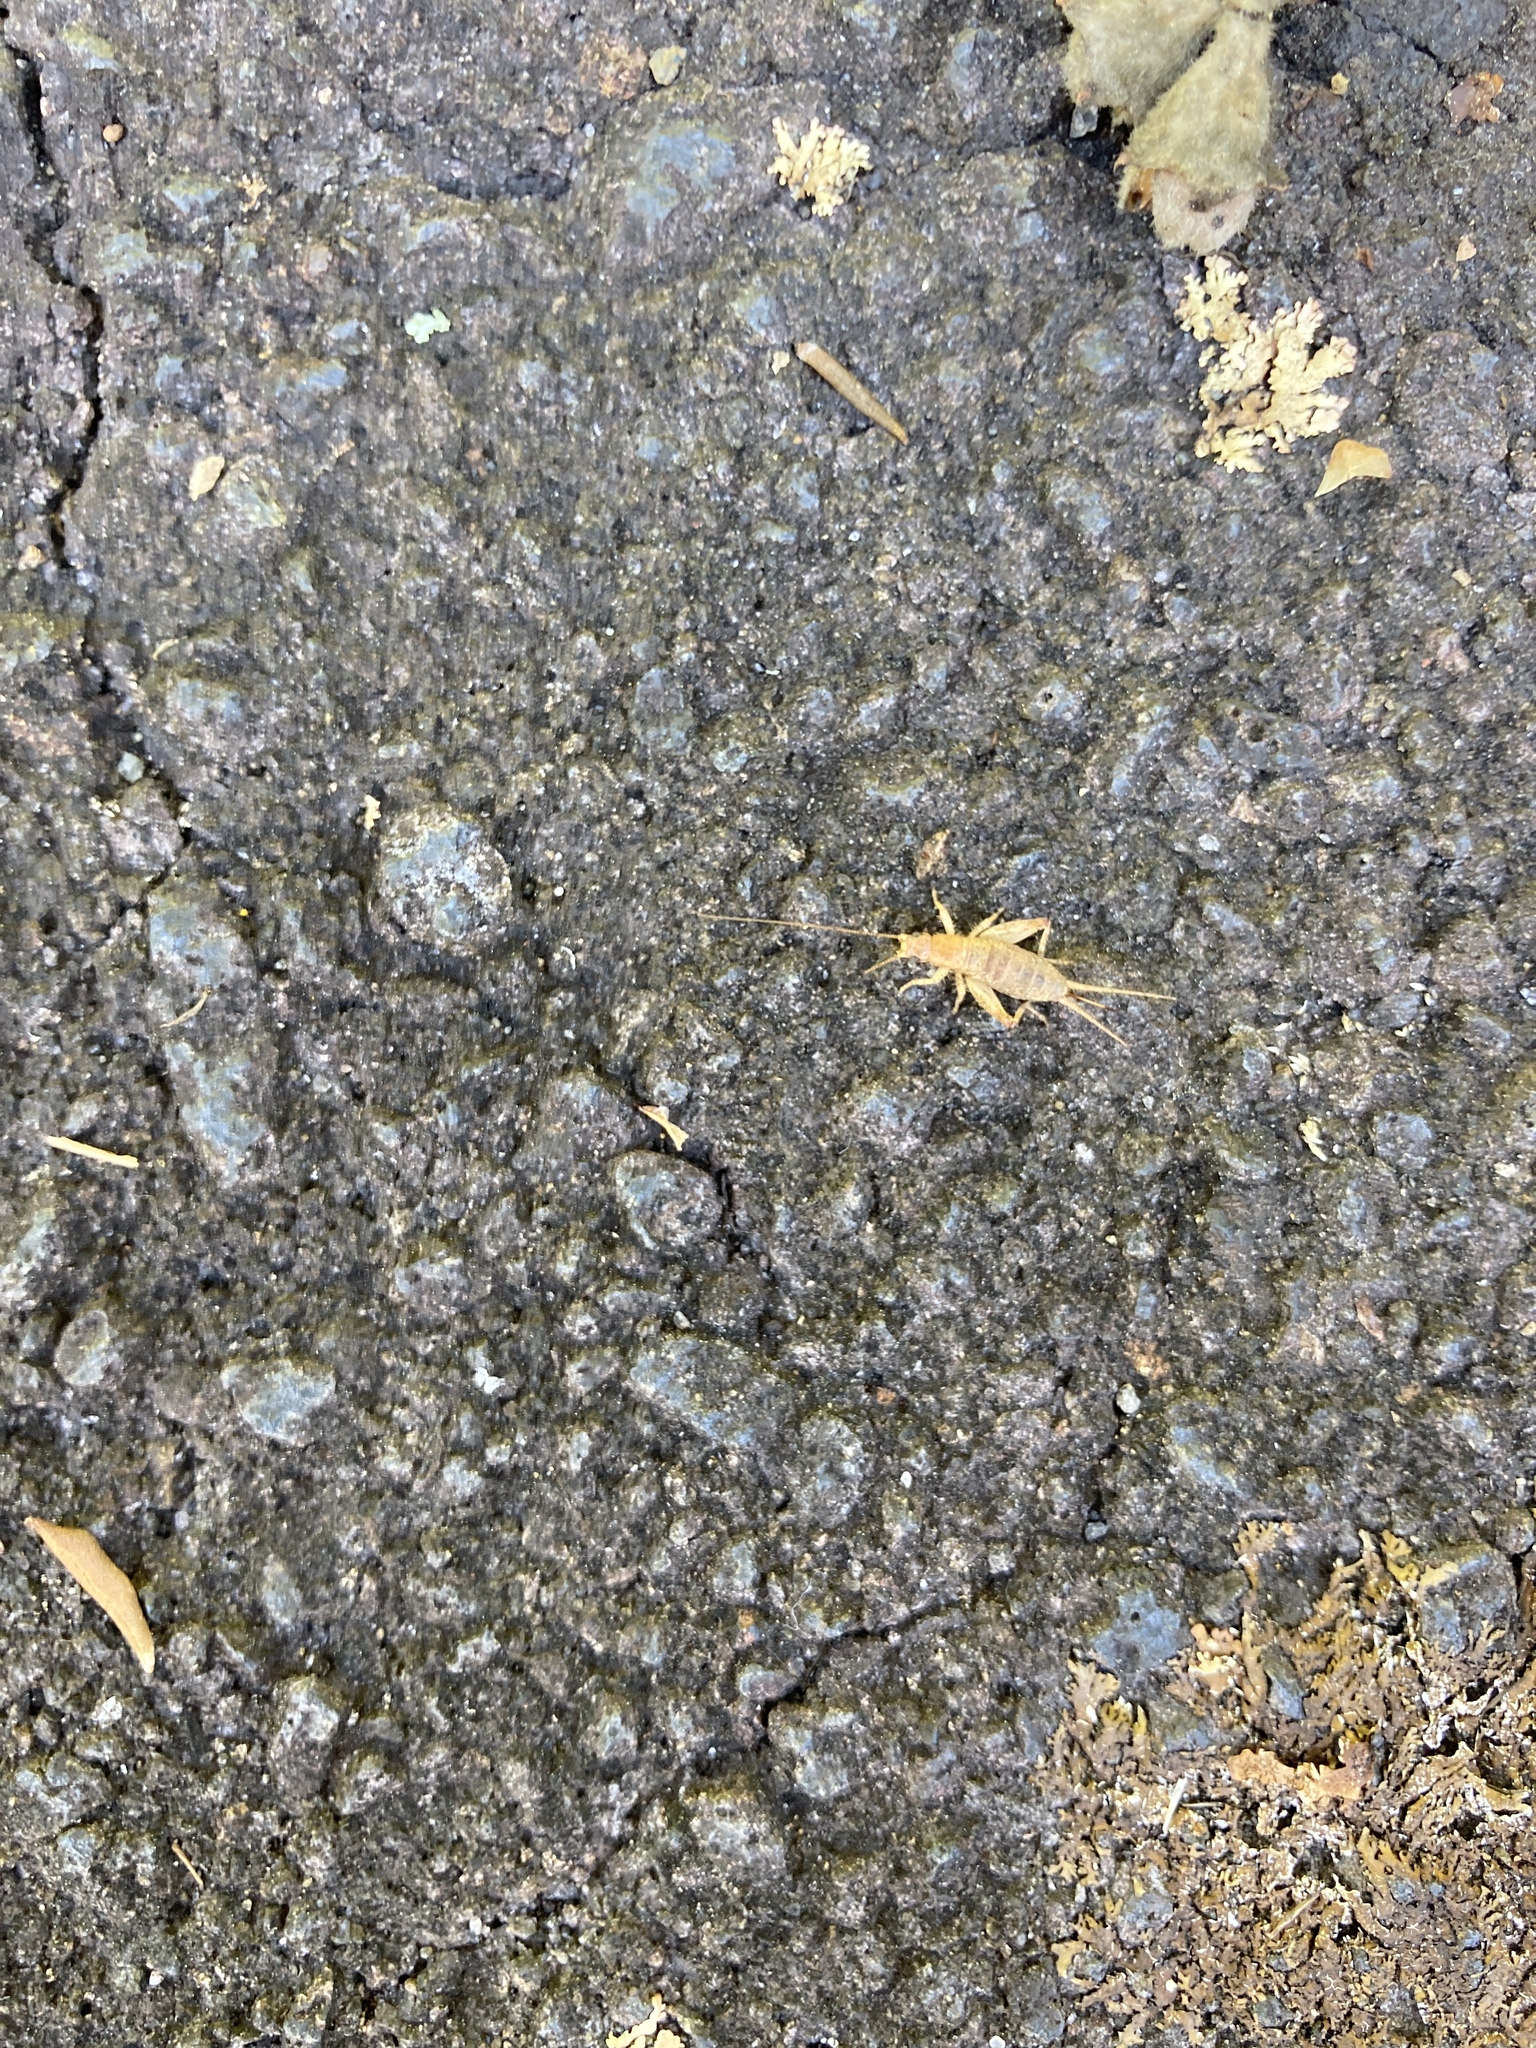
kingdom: Animalia
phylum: Arthropoda
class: Insecta
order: Orthoptera
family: Mogoplistidae
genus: Ornebius
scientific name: Ornebius aperta
